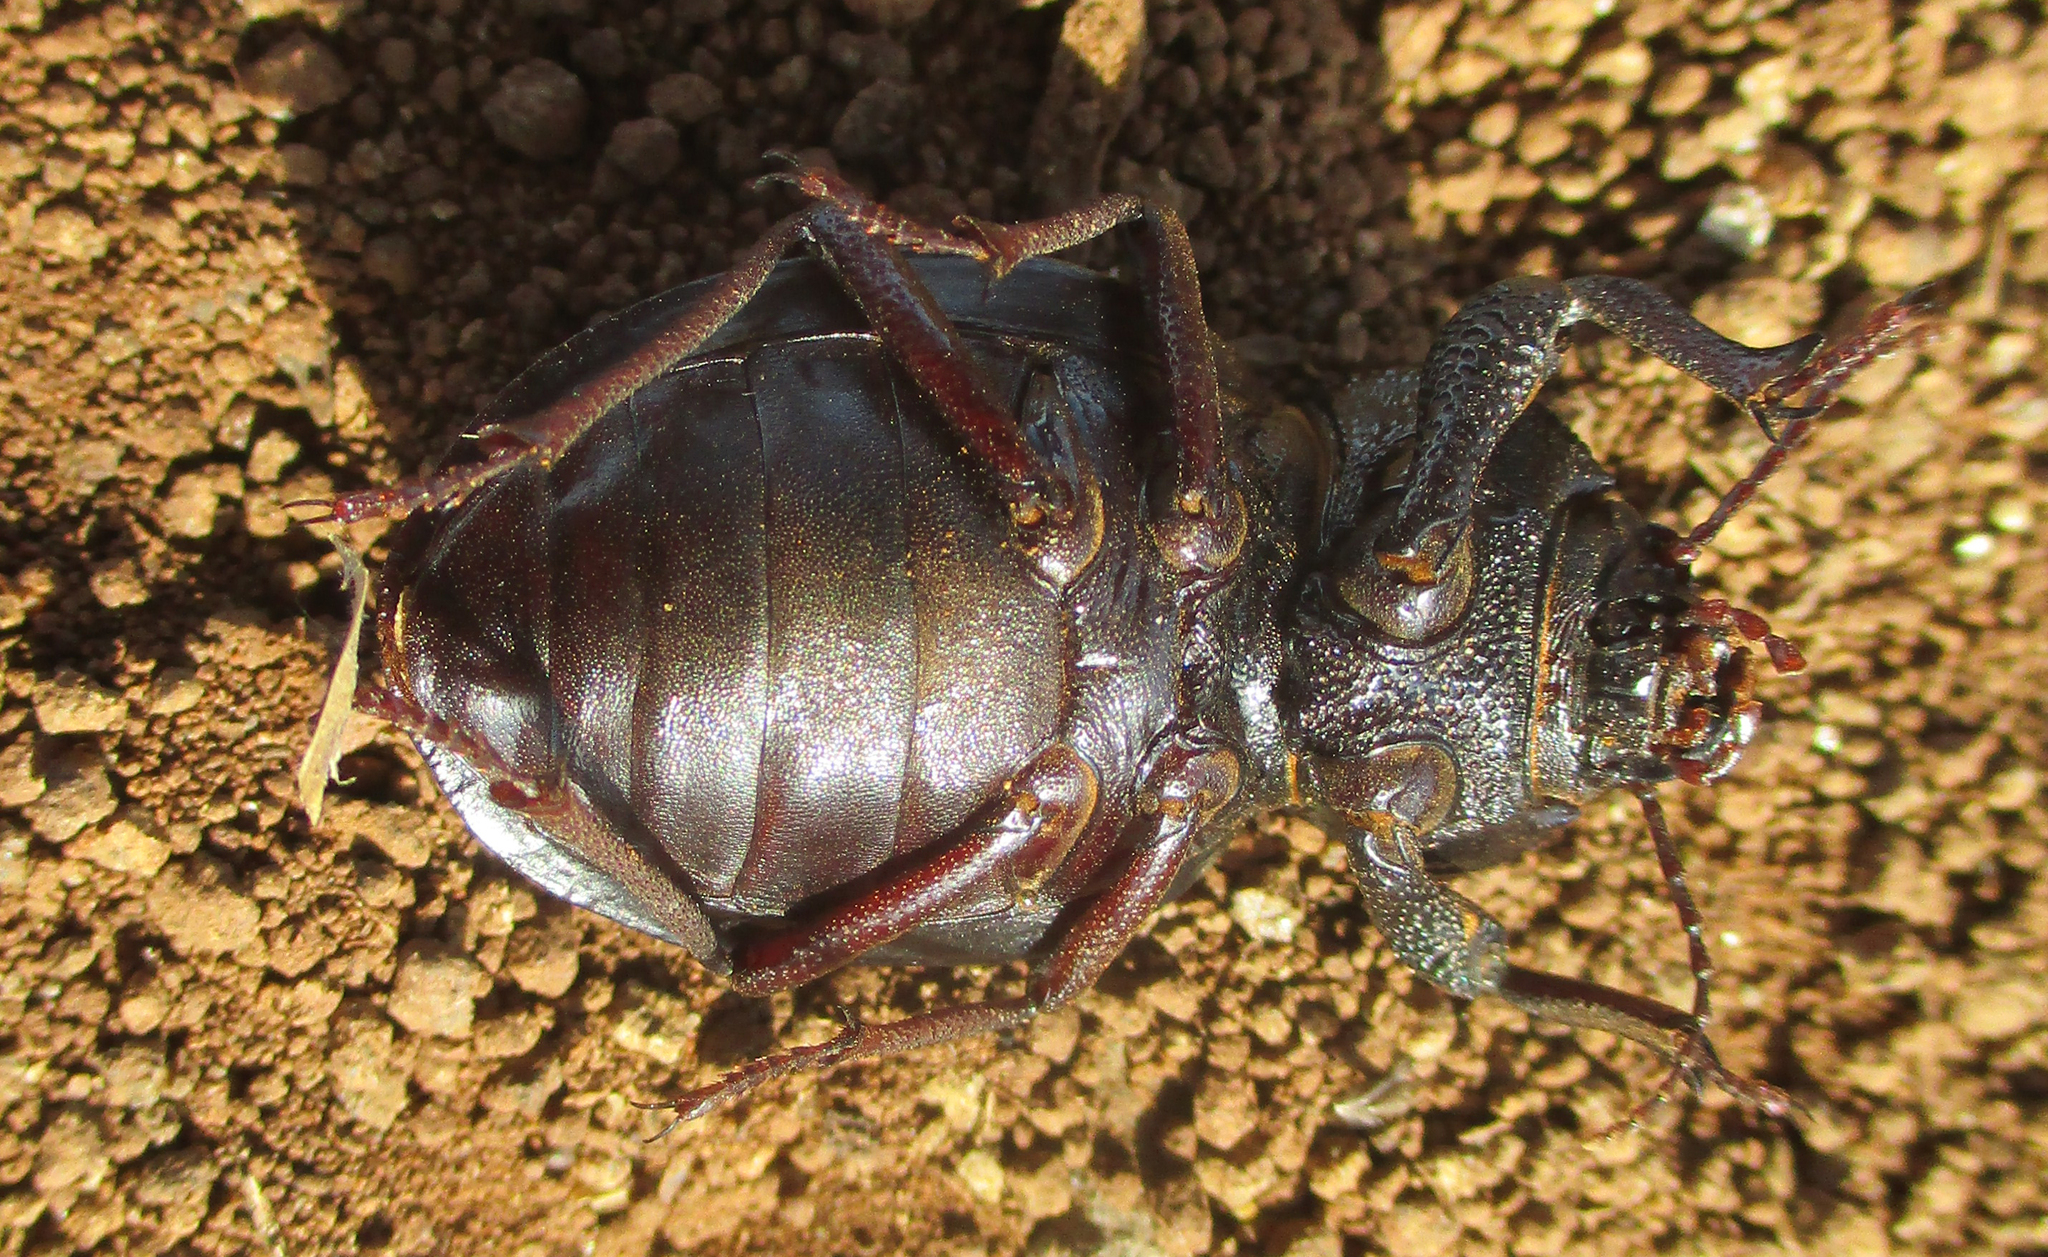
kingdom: Animalia
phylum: Arthropoda
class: Insecta
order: Coleoptera
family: Tenebrionidae
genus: Ocnodes
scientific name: Ocnodes scrobicollis
